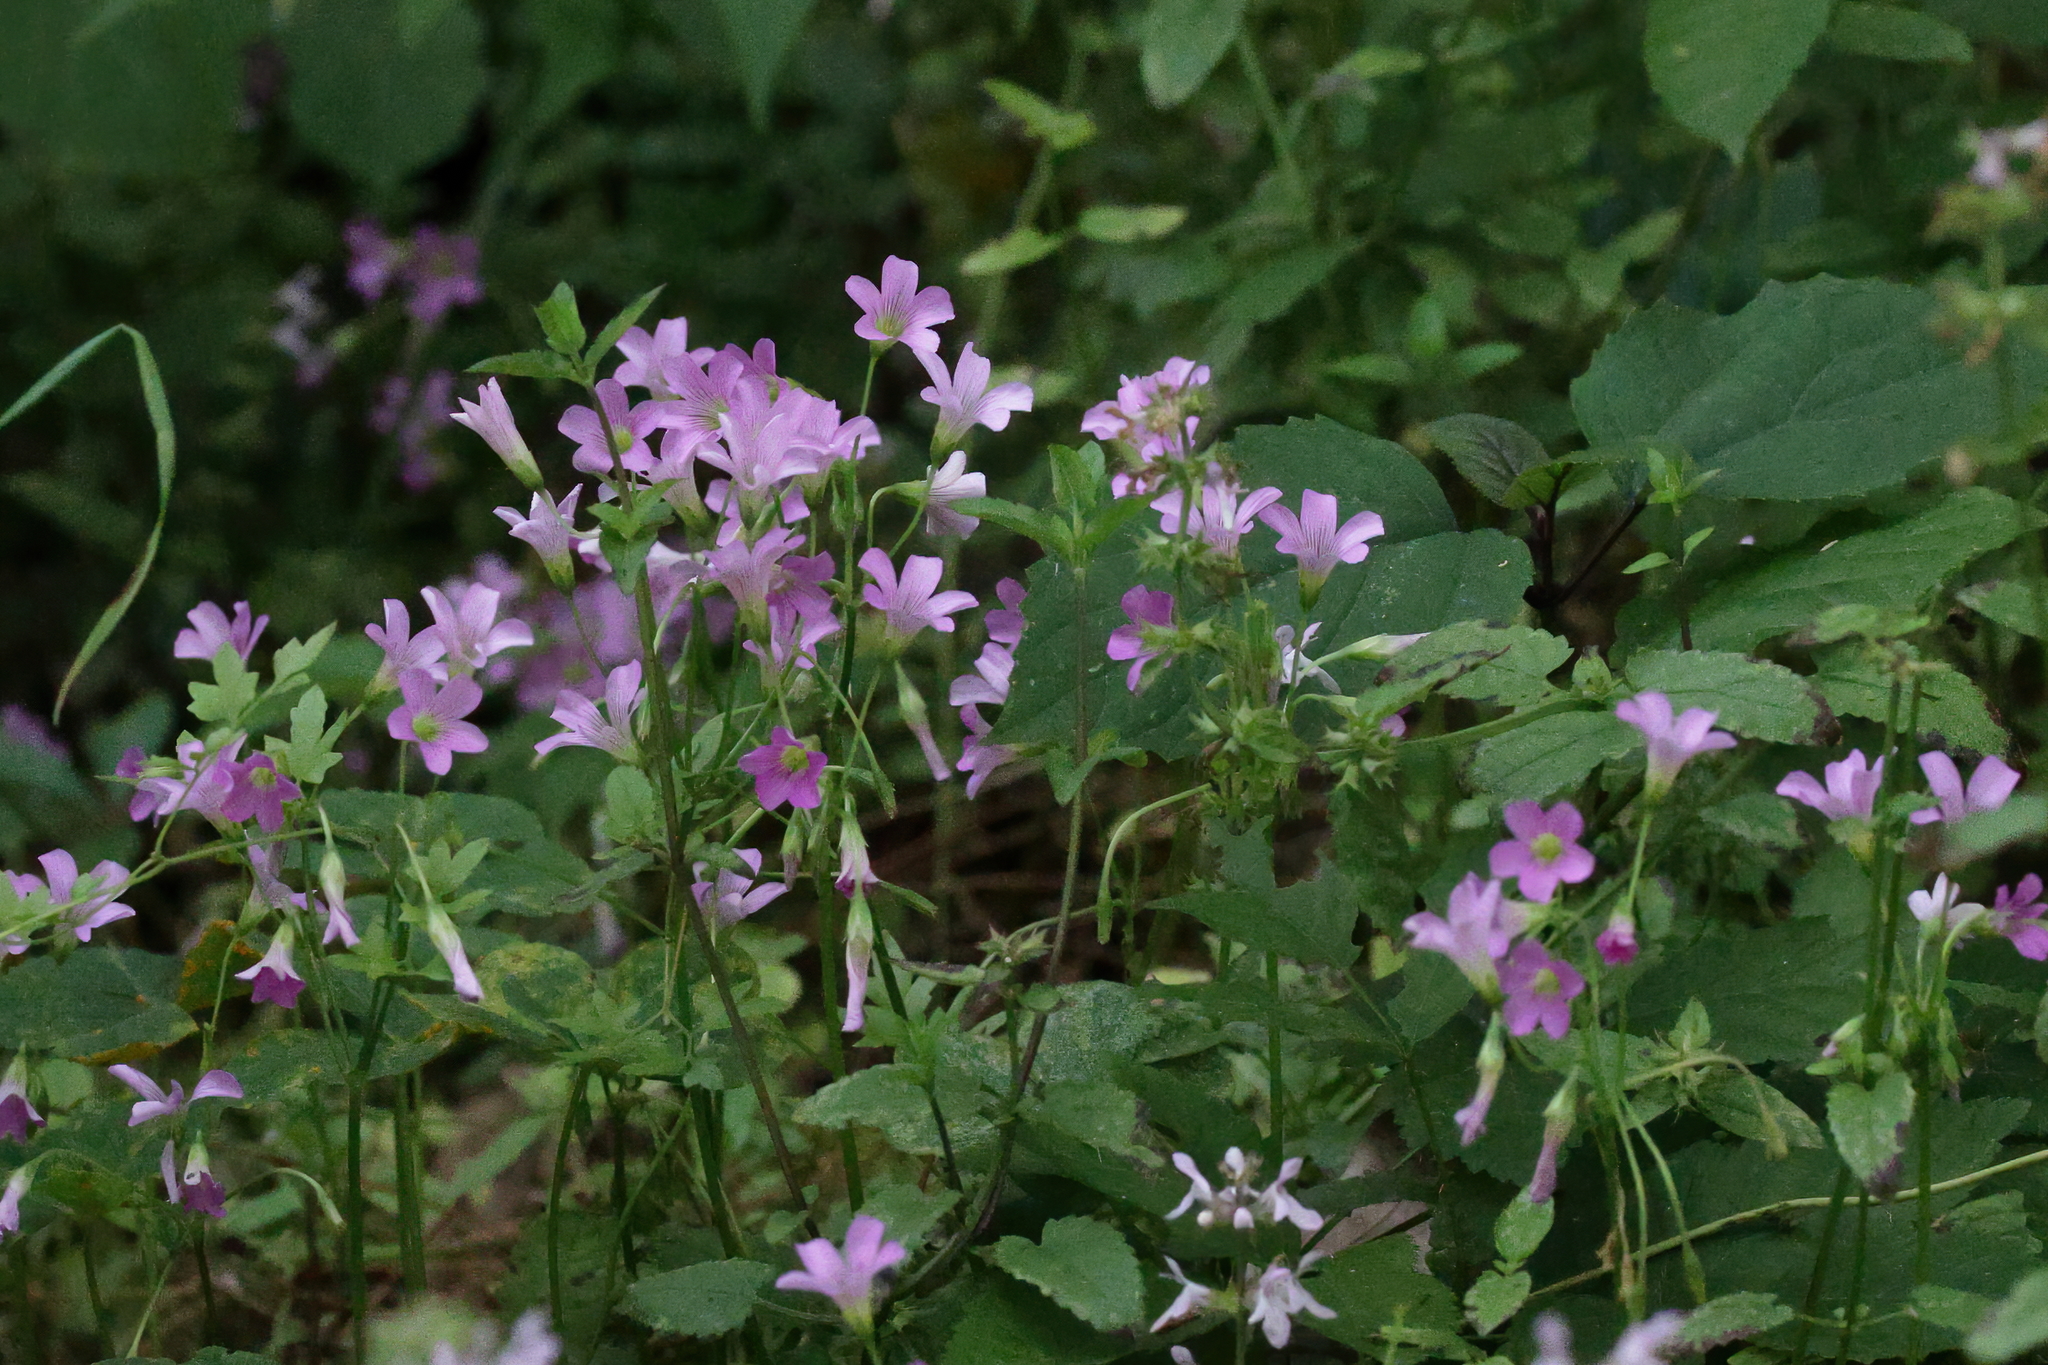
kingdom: Plantae
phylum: Tracheophyta
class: Magnoliopsida
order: Oxalidales
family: Oxalidaceae
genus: Oxalis
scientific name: Oxalis debilis
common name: Large-flowered pink-sorrel
